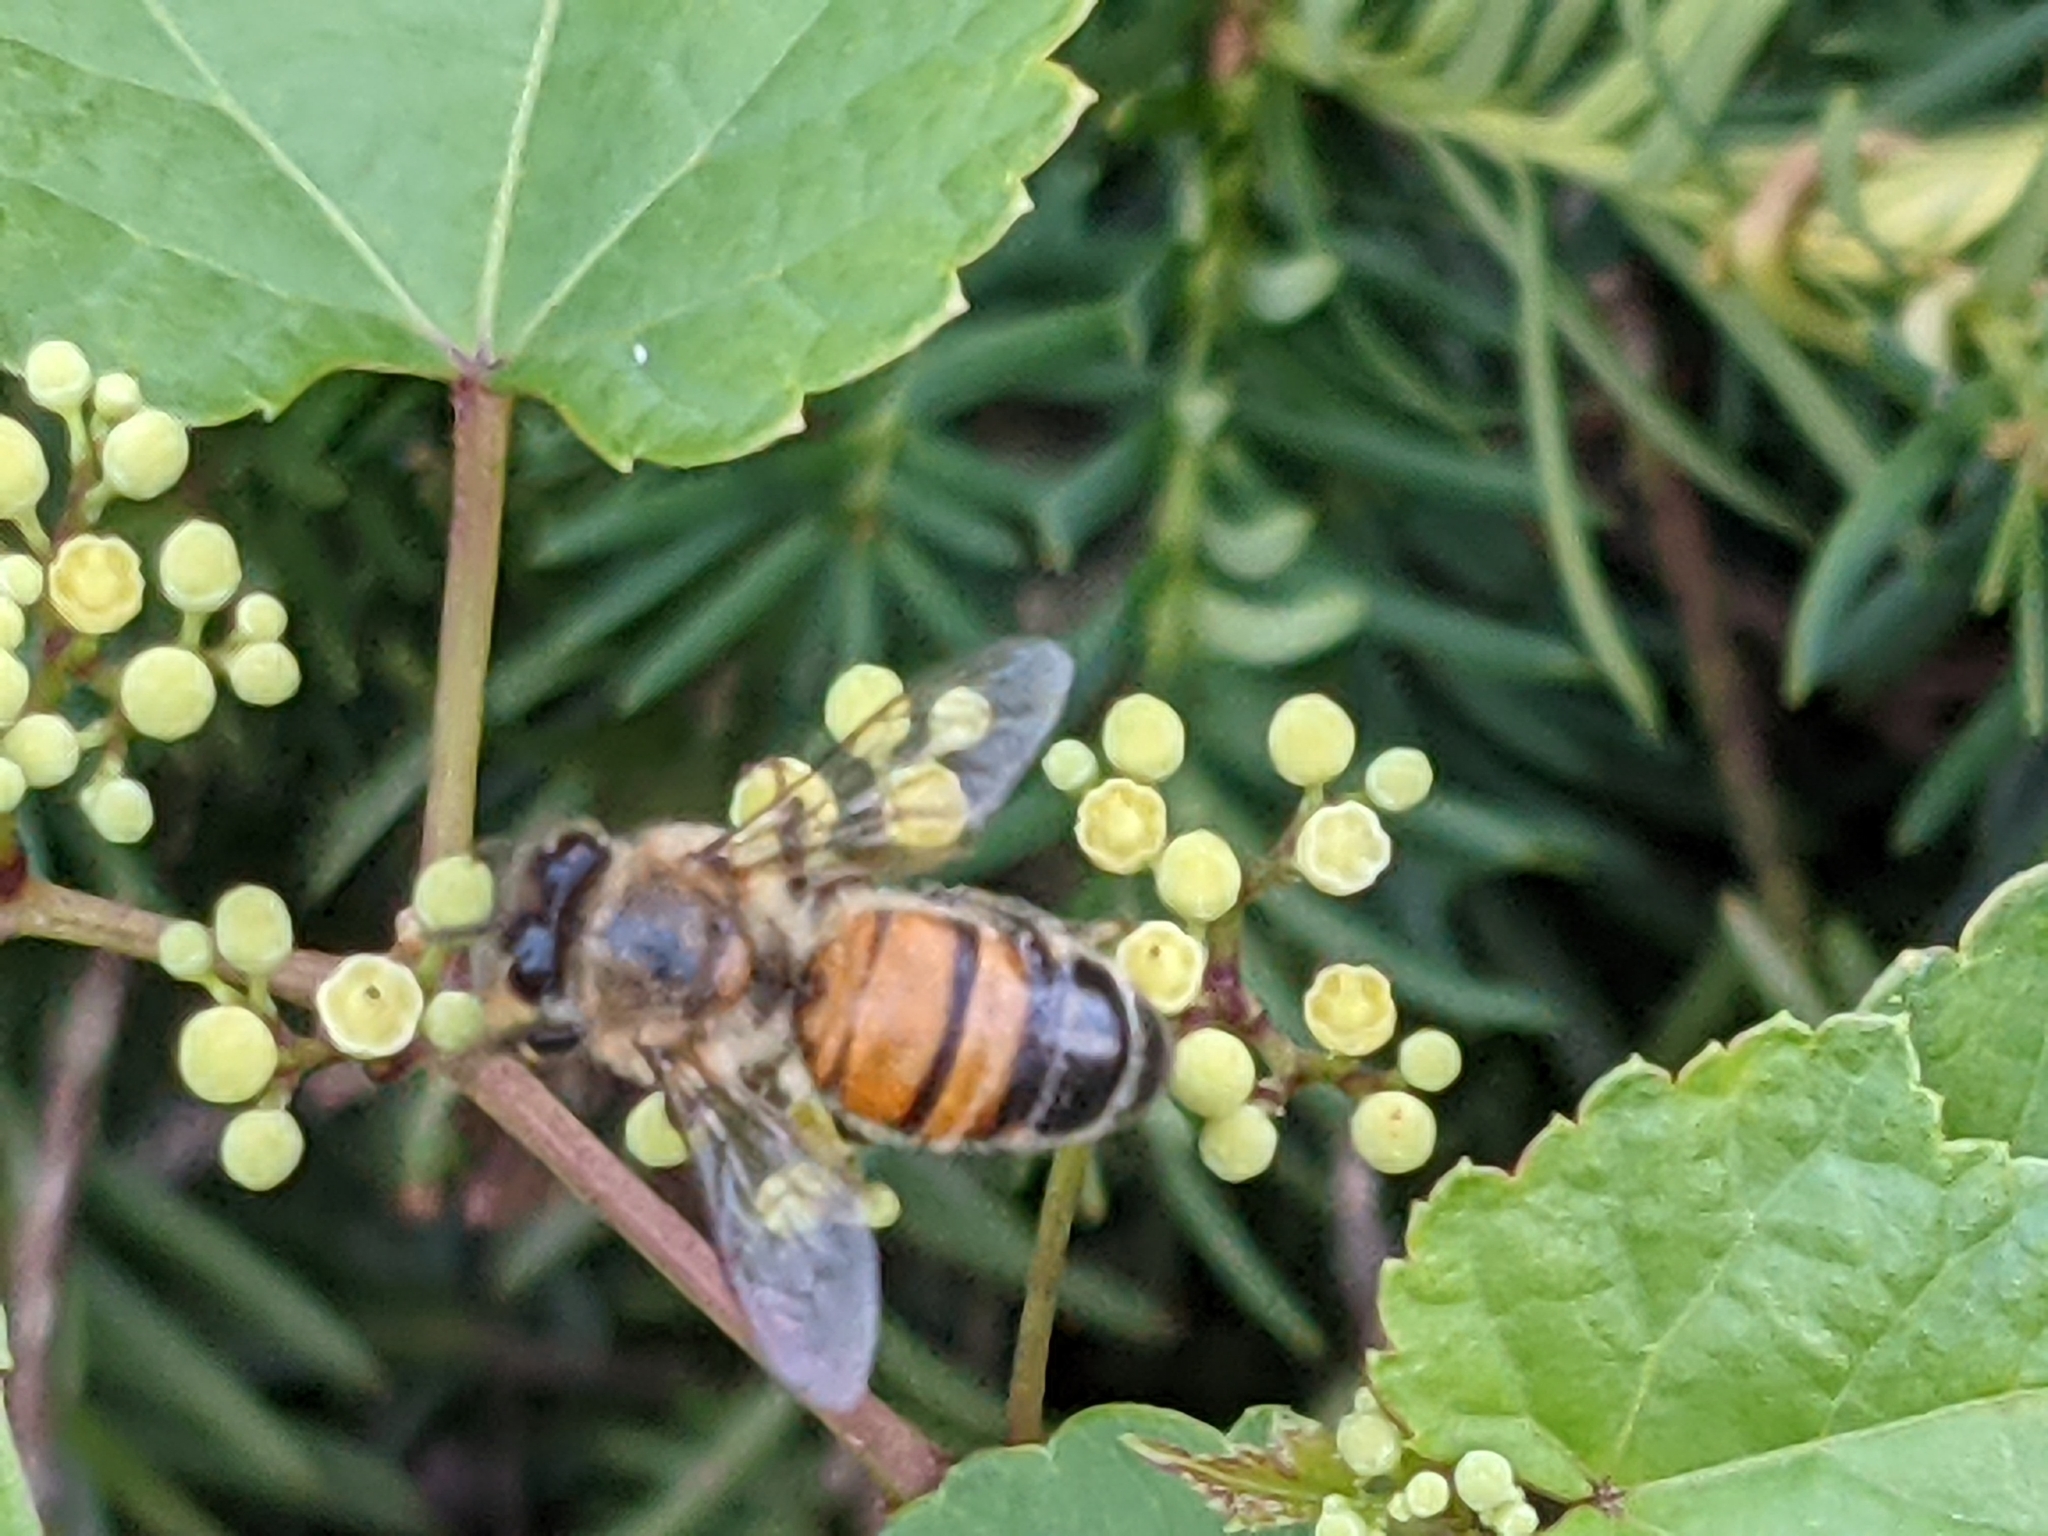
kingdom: Animalia
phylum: Arthropoda
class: Insecta
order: Hymenoptera
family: Apidae
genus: Apis
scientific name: Apis mellifera
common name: Honey bee
